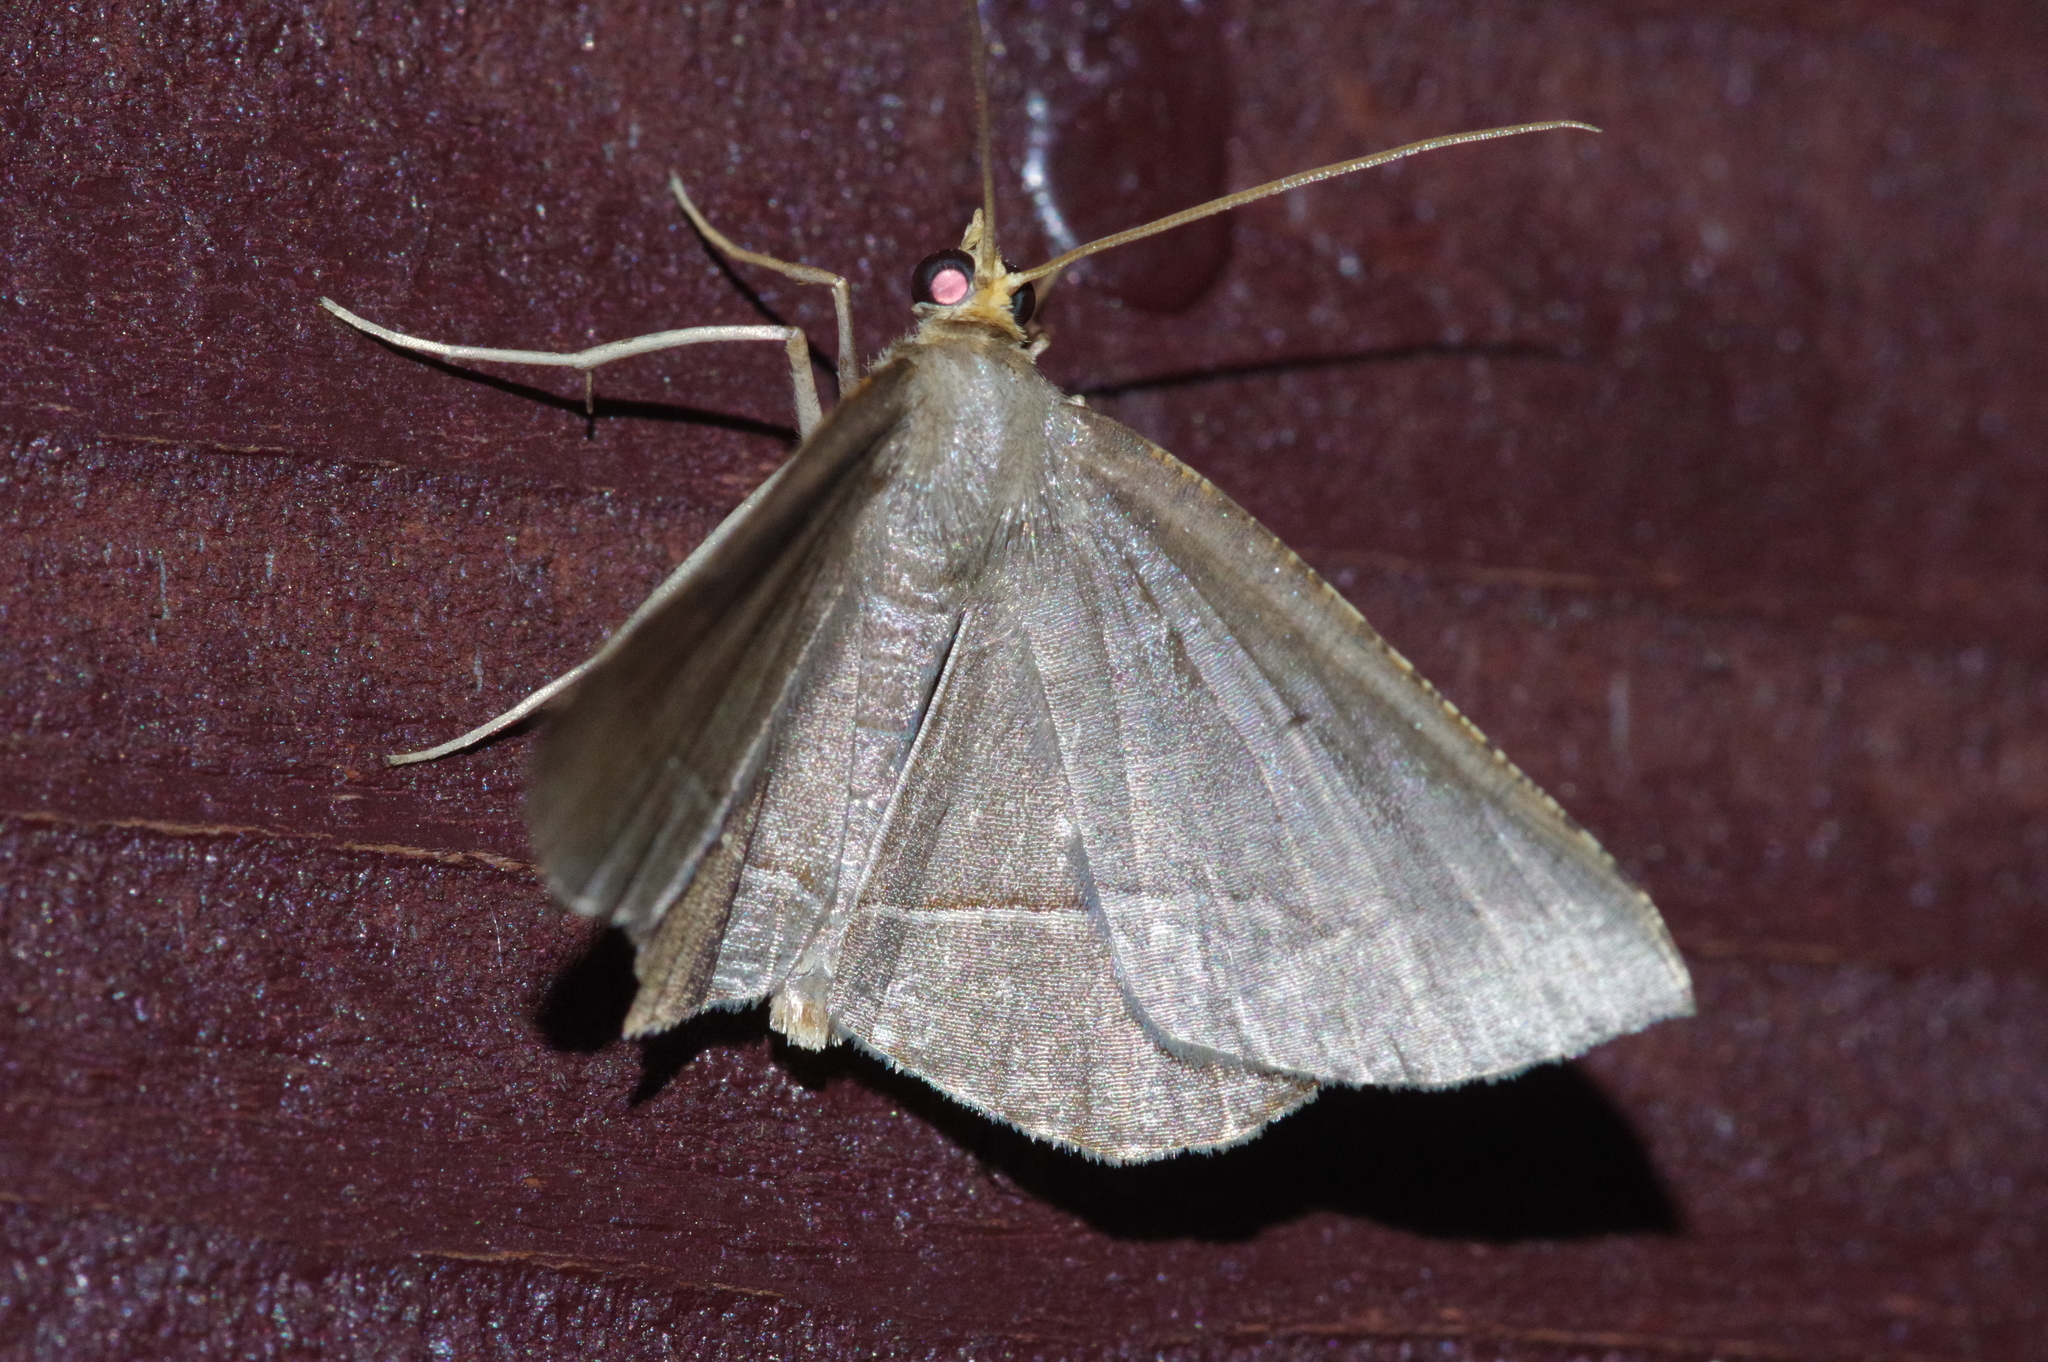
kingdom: Animalia
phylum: Arthropoda
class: Insecta
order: Lepidoptera
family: Geometridae
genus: Plesiomorpha
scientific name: Plesiomorpha flaviceps
